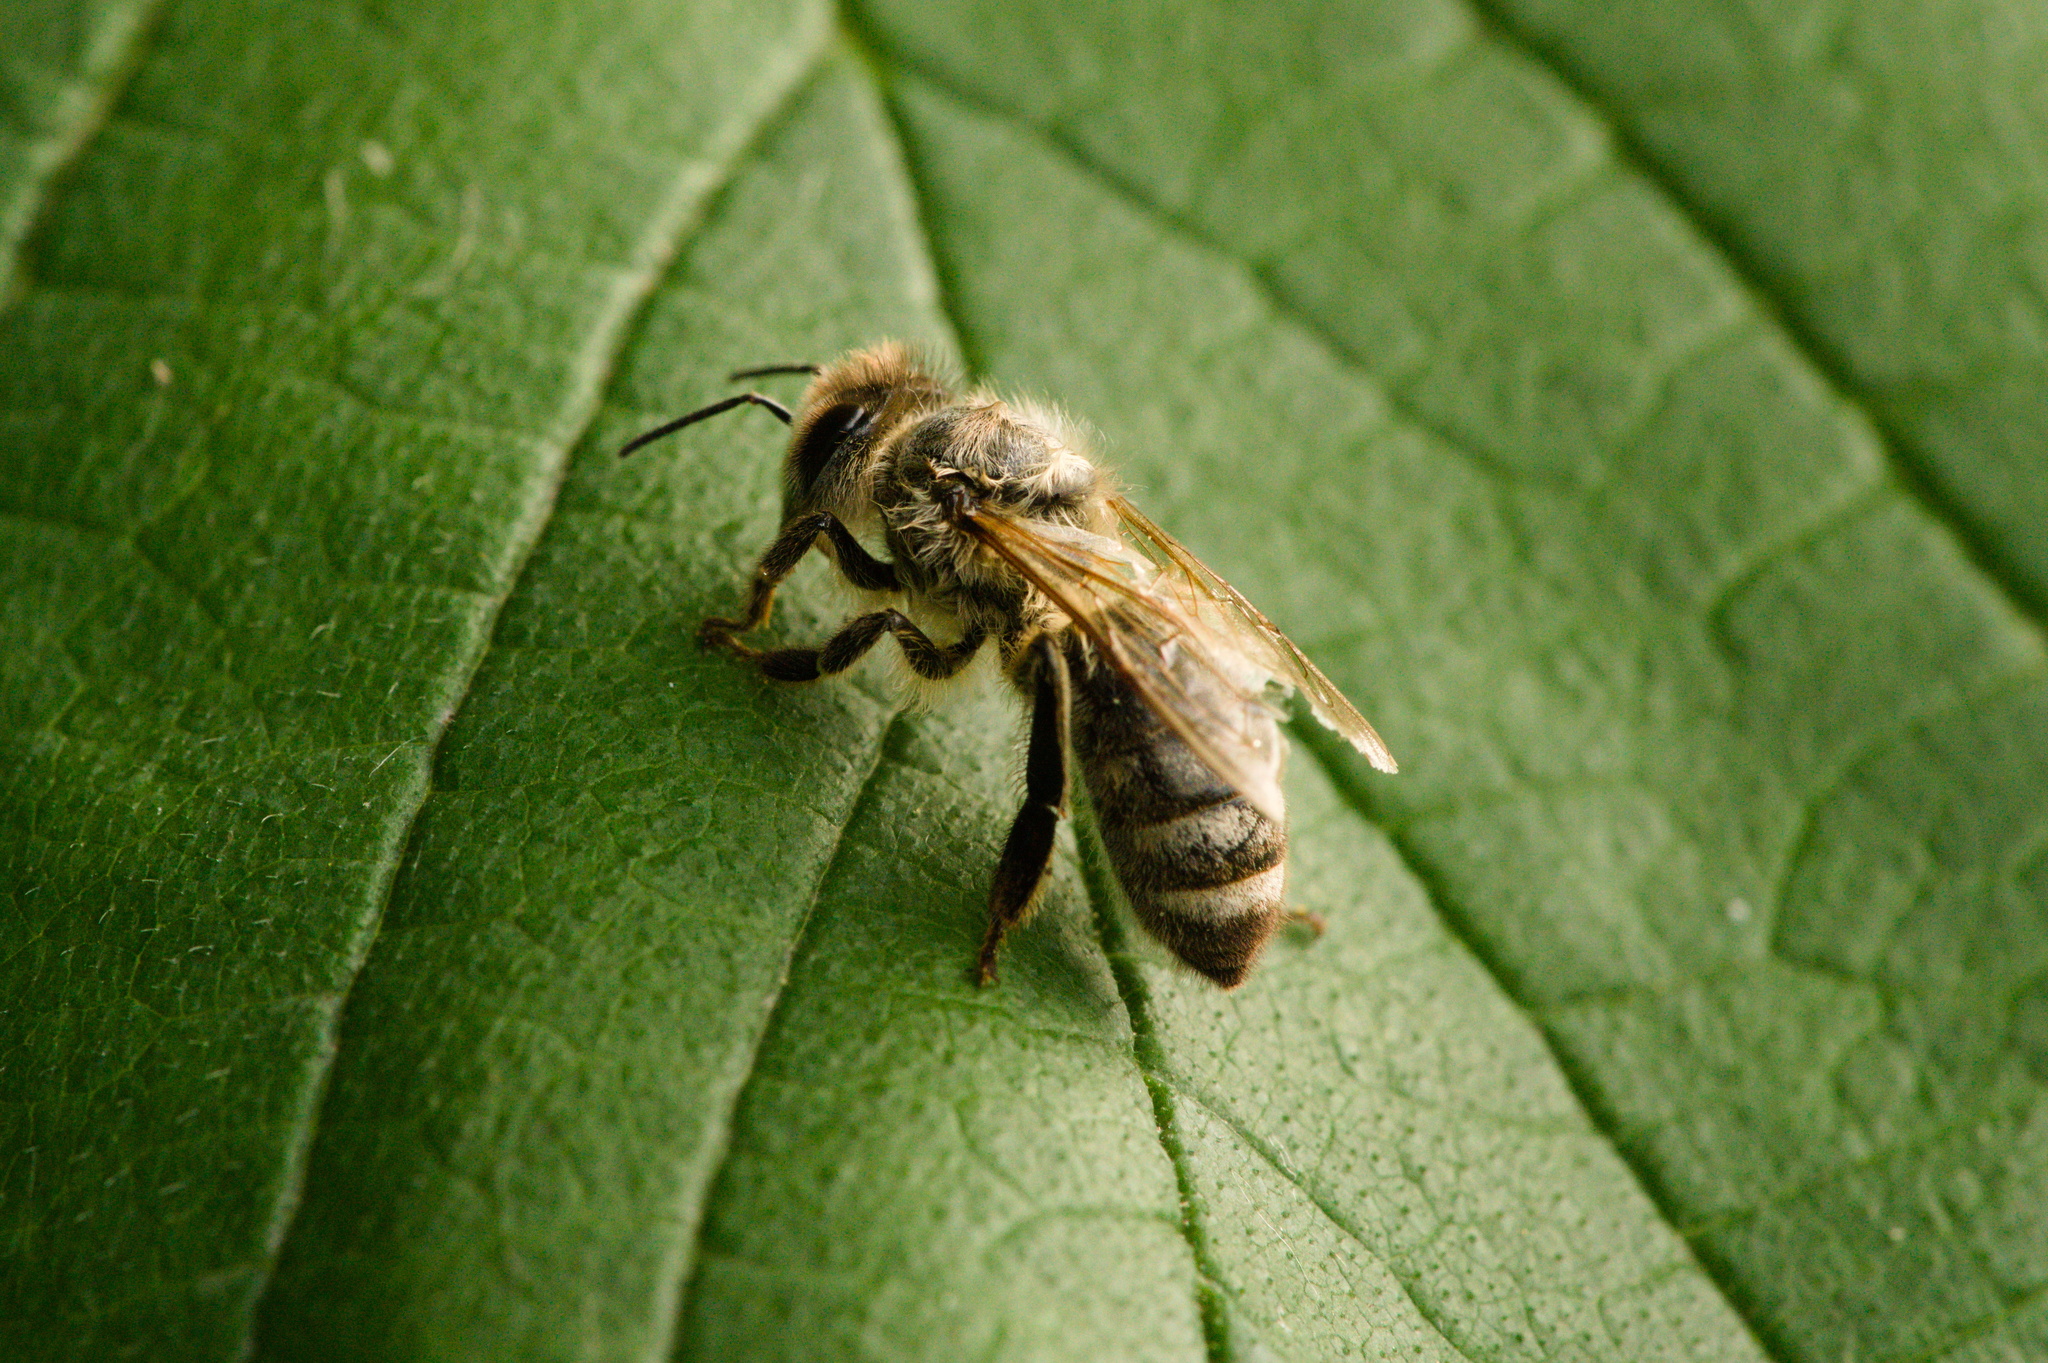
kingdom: Animalia
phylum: Arthropoda
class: Insecta
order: Hymenoptera
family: Apidae
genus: Apis
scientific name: Apis mellifera
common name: Honey bee
